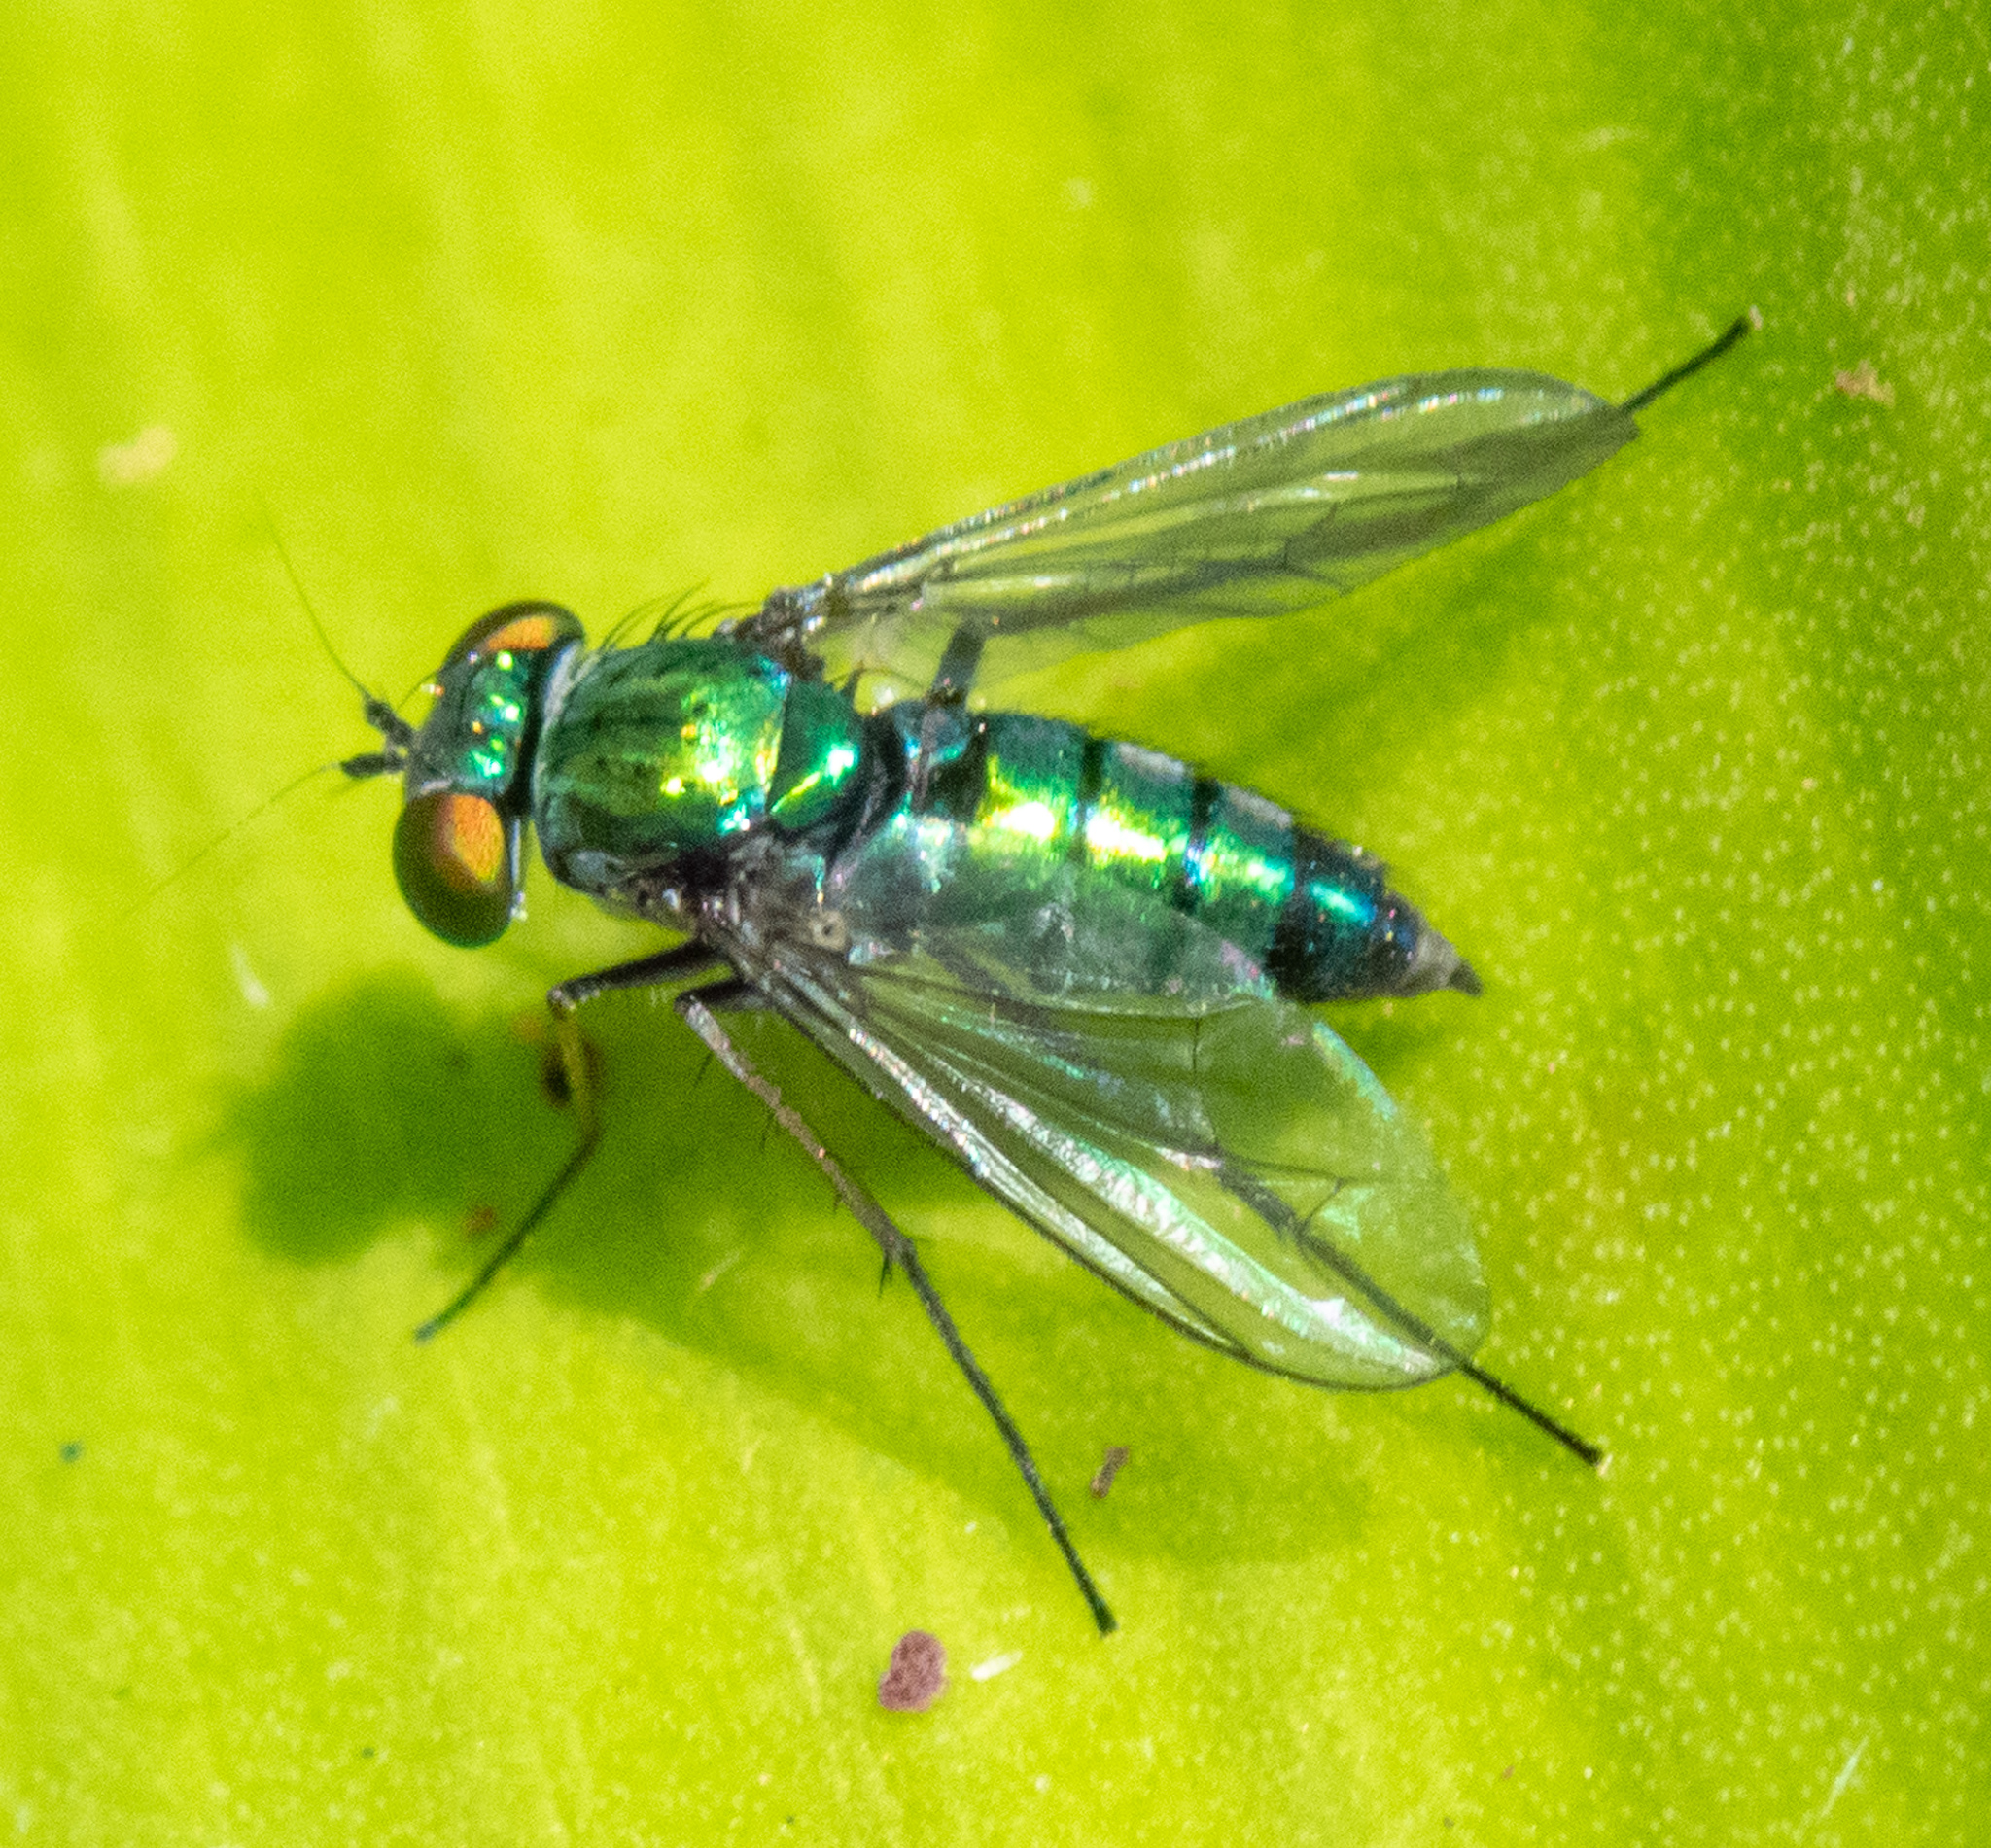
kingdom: Animalia
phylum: Arthropoda
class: Insecta
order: Diptera
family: Dolichopodidae
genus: Condylostylus
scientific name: Condylostylus longicornis
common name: Long-legged fly
